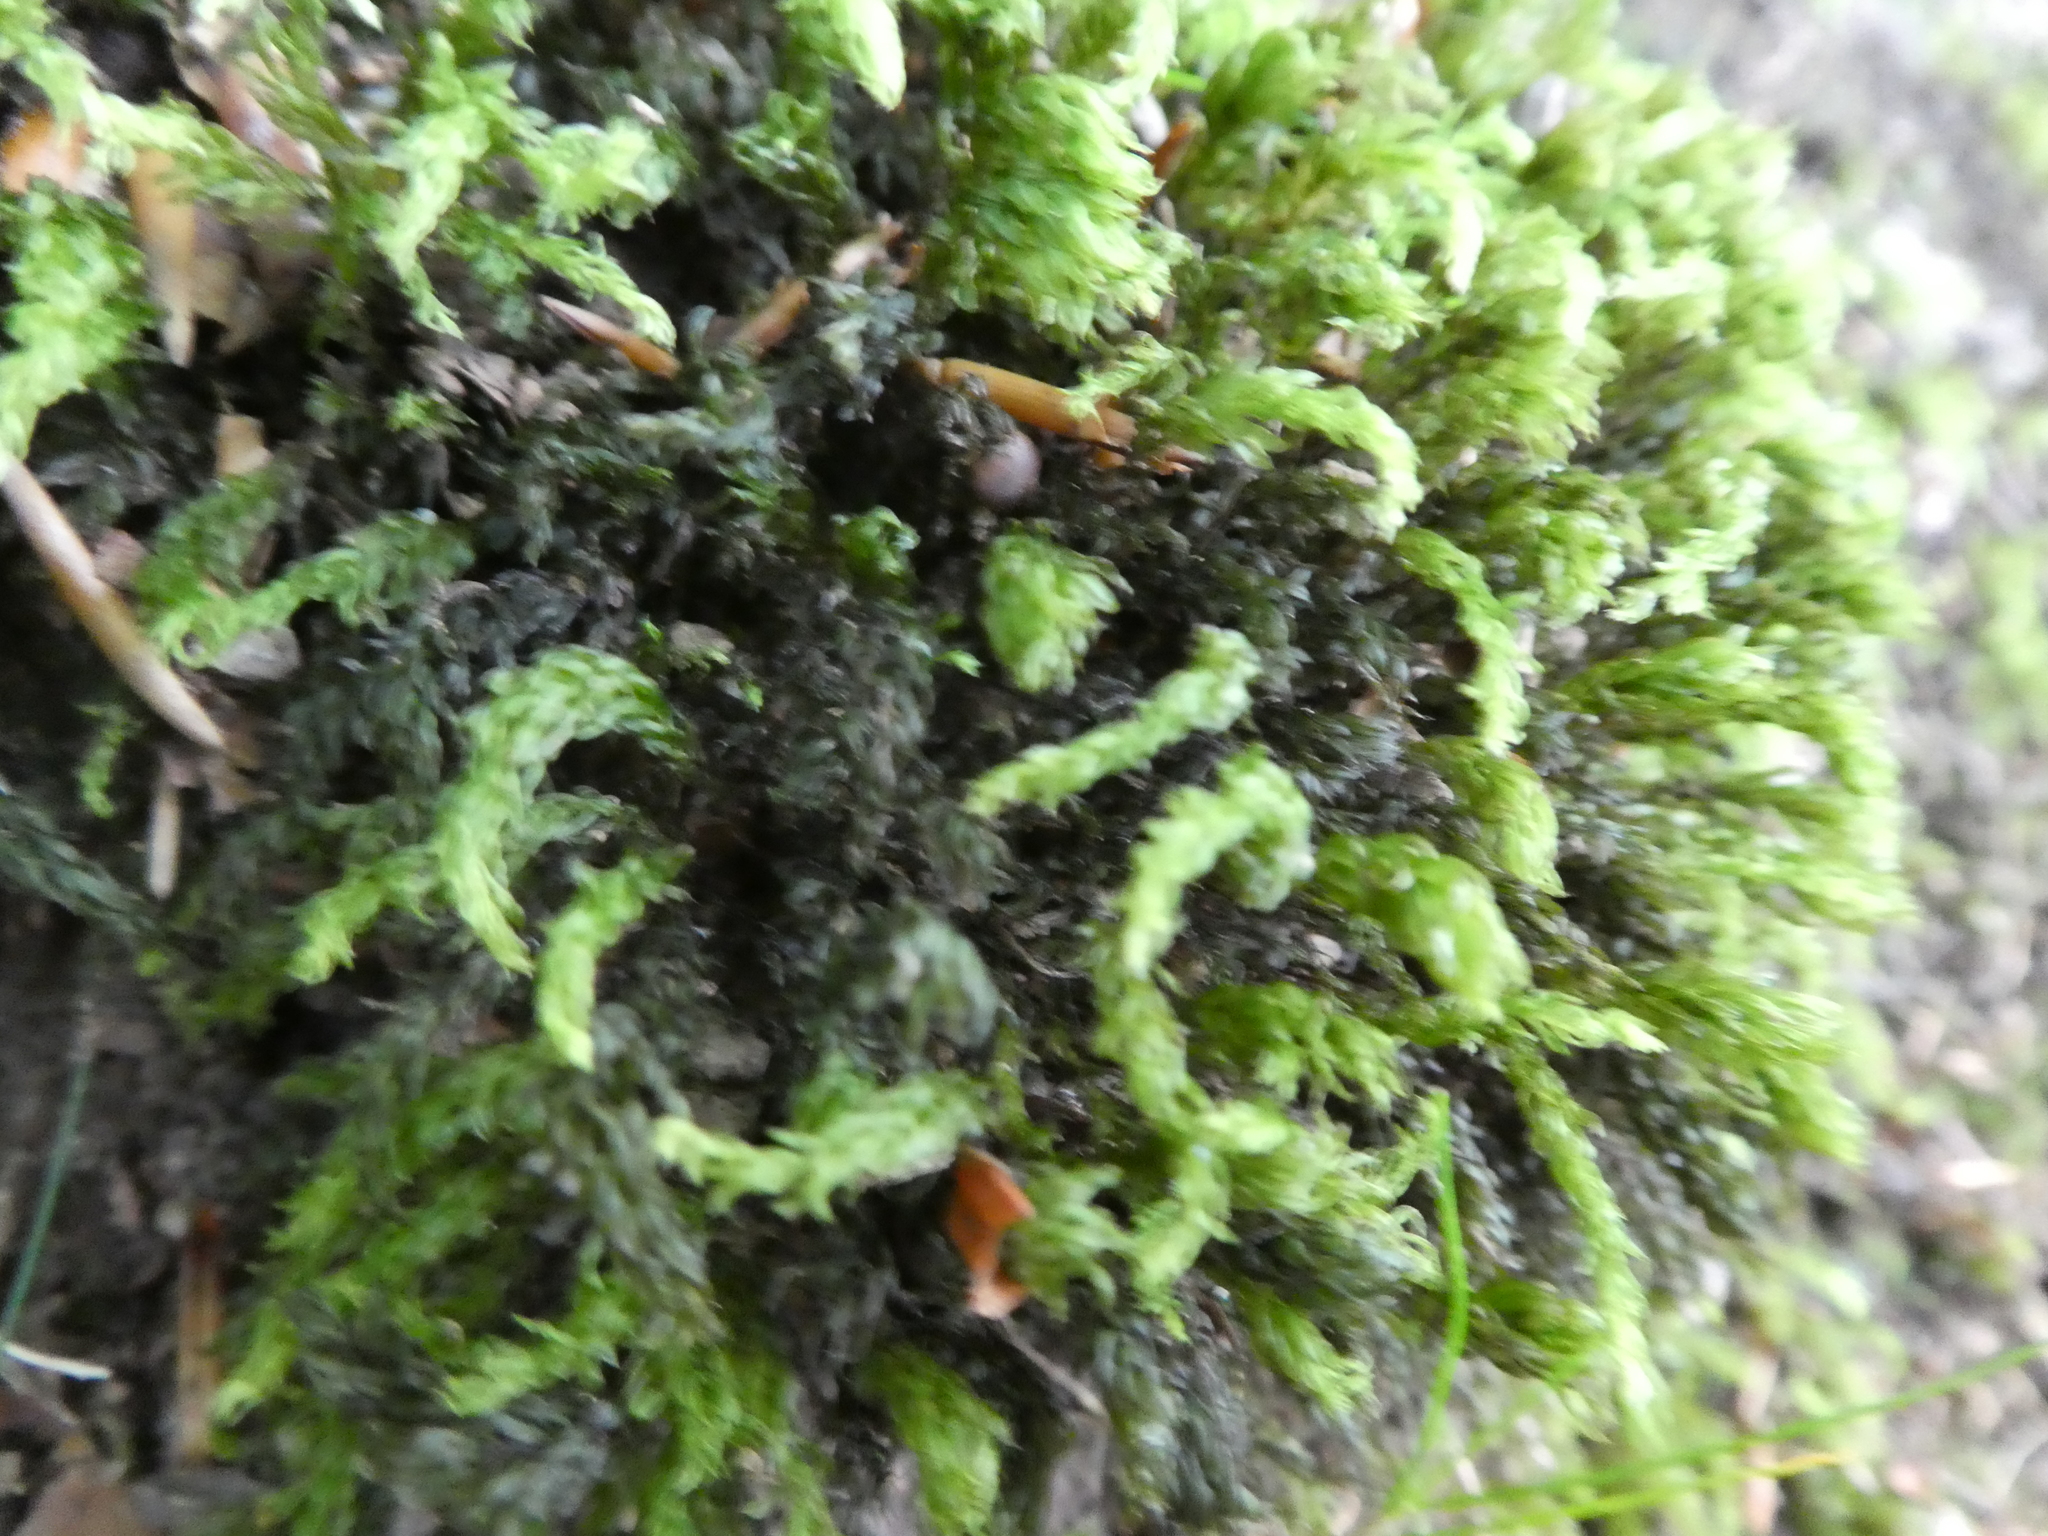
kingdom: Plantae
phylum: Bryophyta
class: Bryopsida
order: Bryales
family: Mniaceae
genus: Mnium
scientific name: Mnium hornum
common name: Swan's-neck leafy moss
